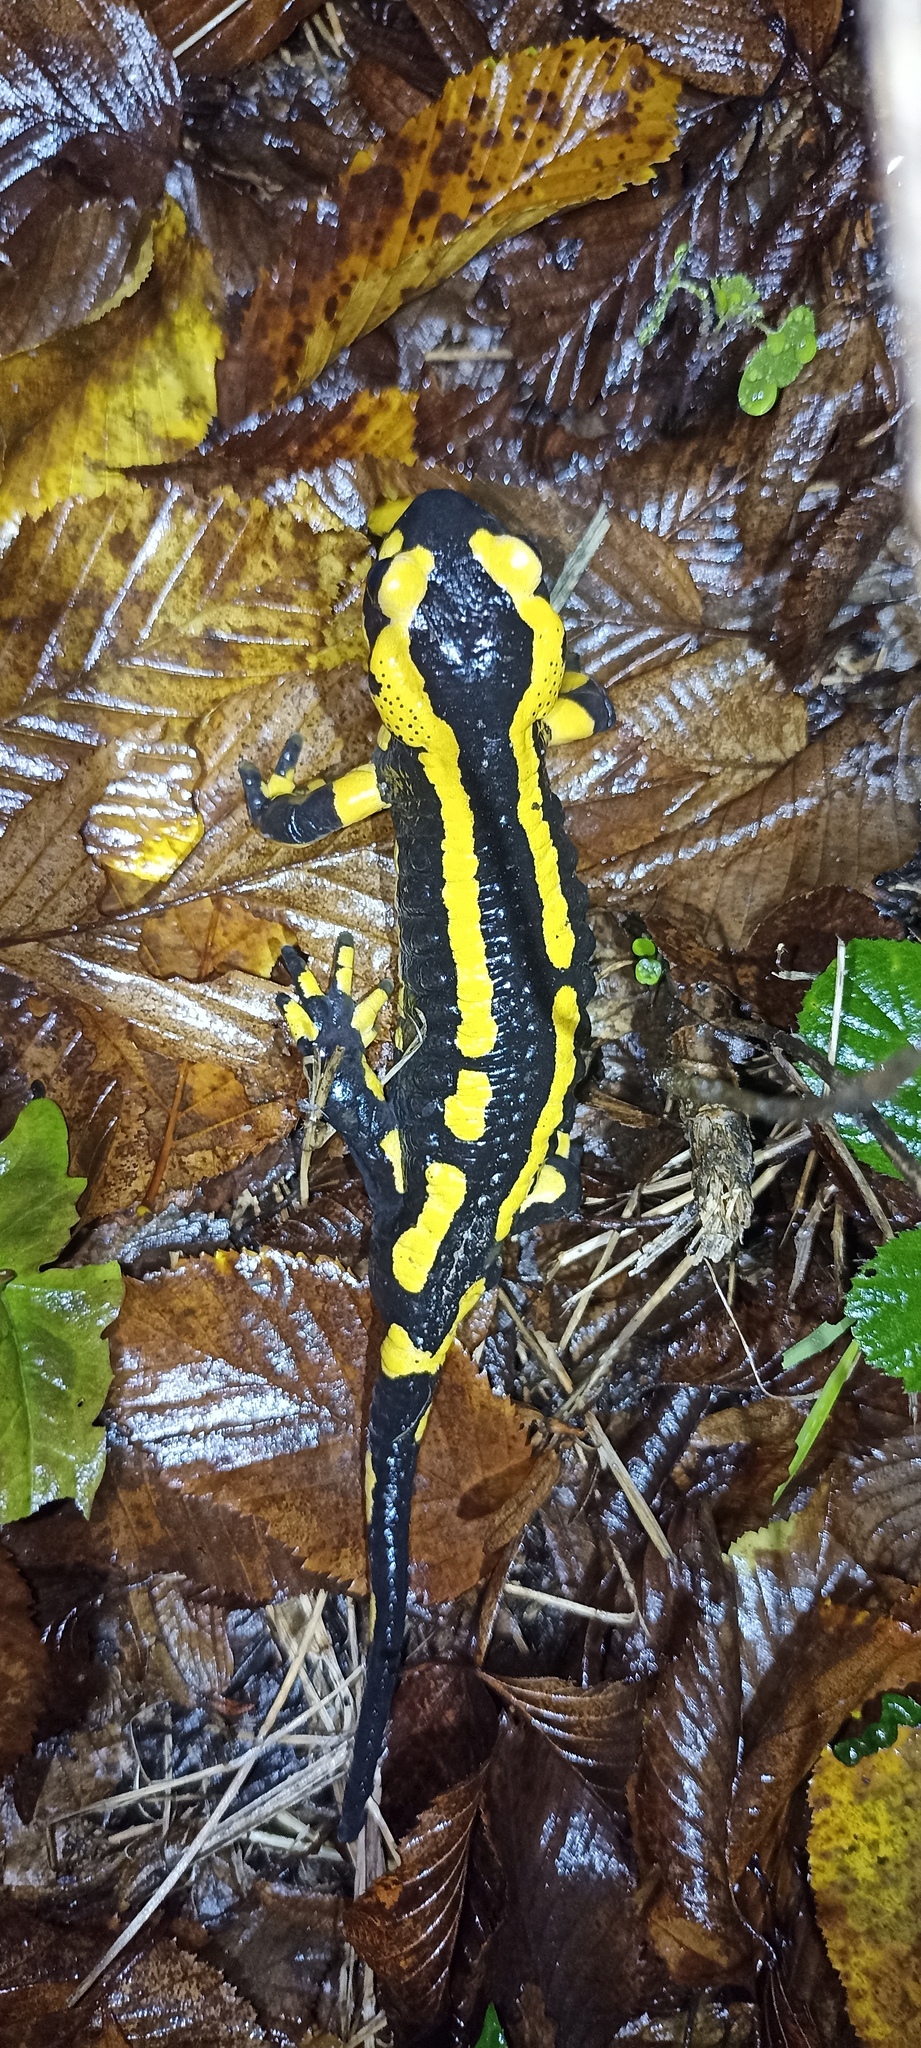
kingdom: Animalia
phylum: Chordata
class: Amphibia
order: Caudata
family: Salamandridae
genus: Salamandra
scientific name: Salamandra salamandra
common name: Fire salamander
